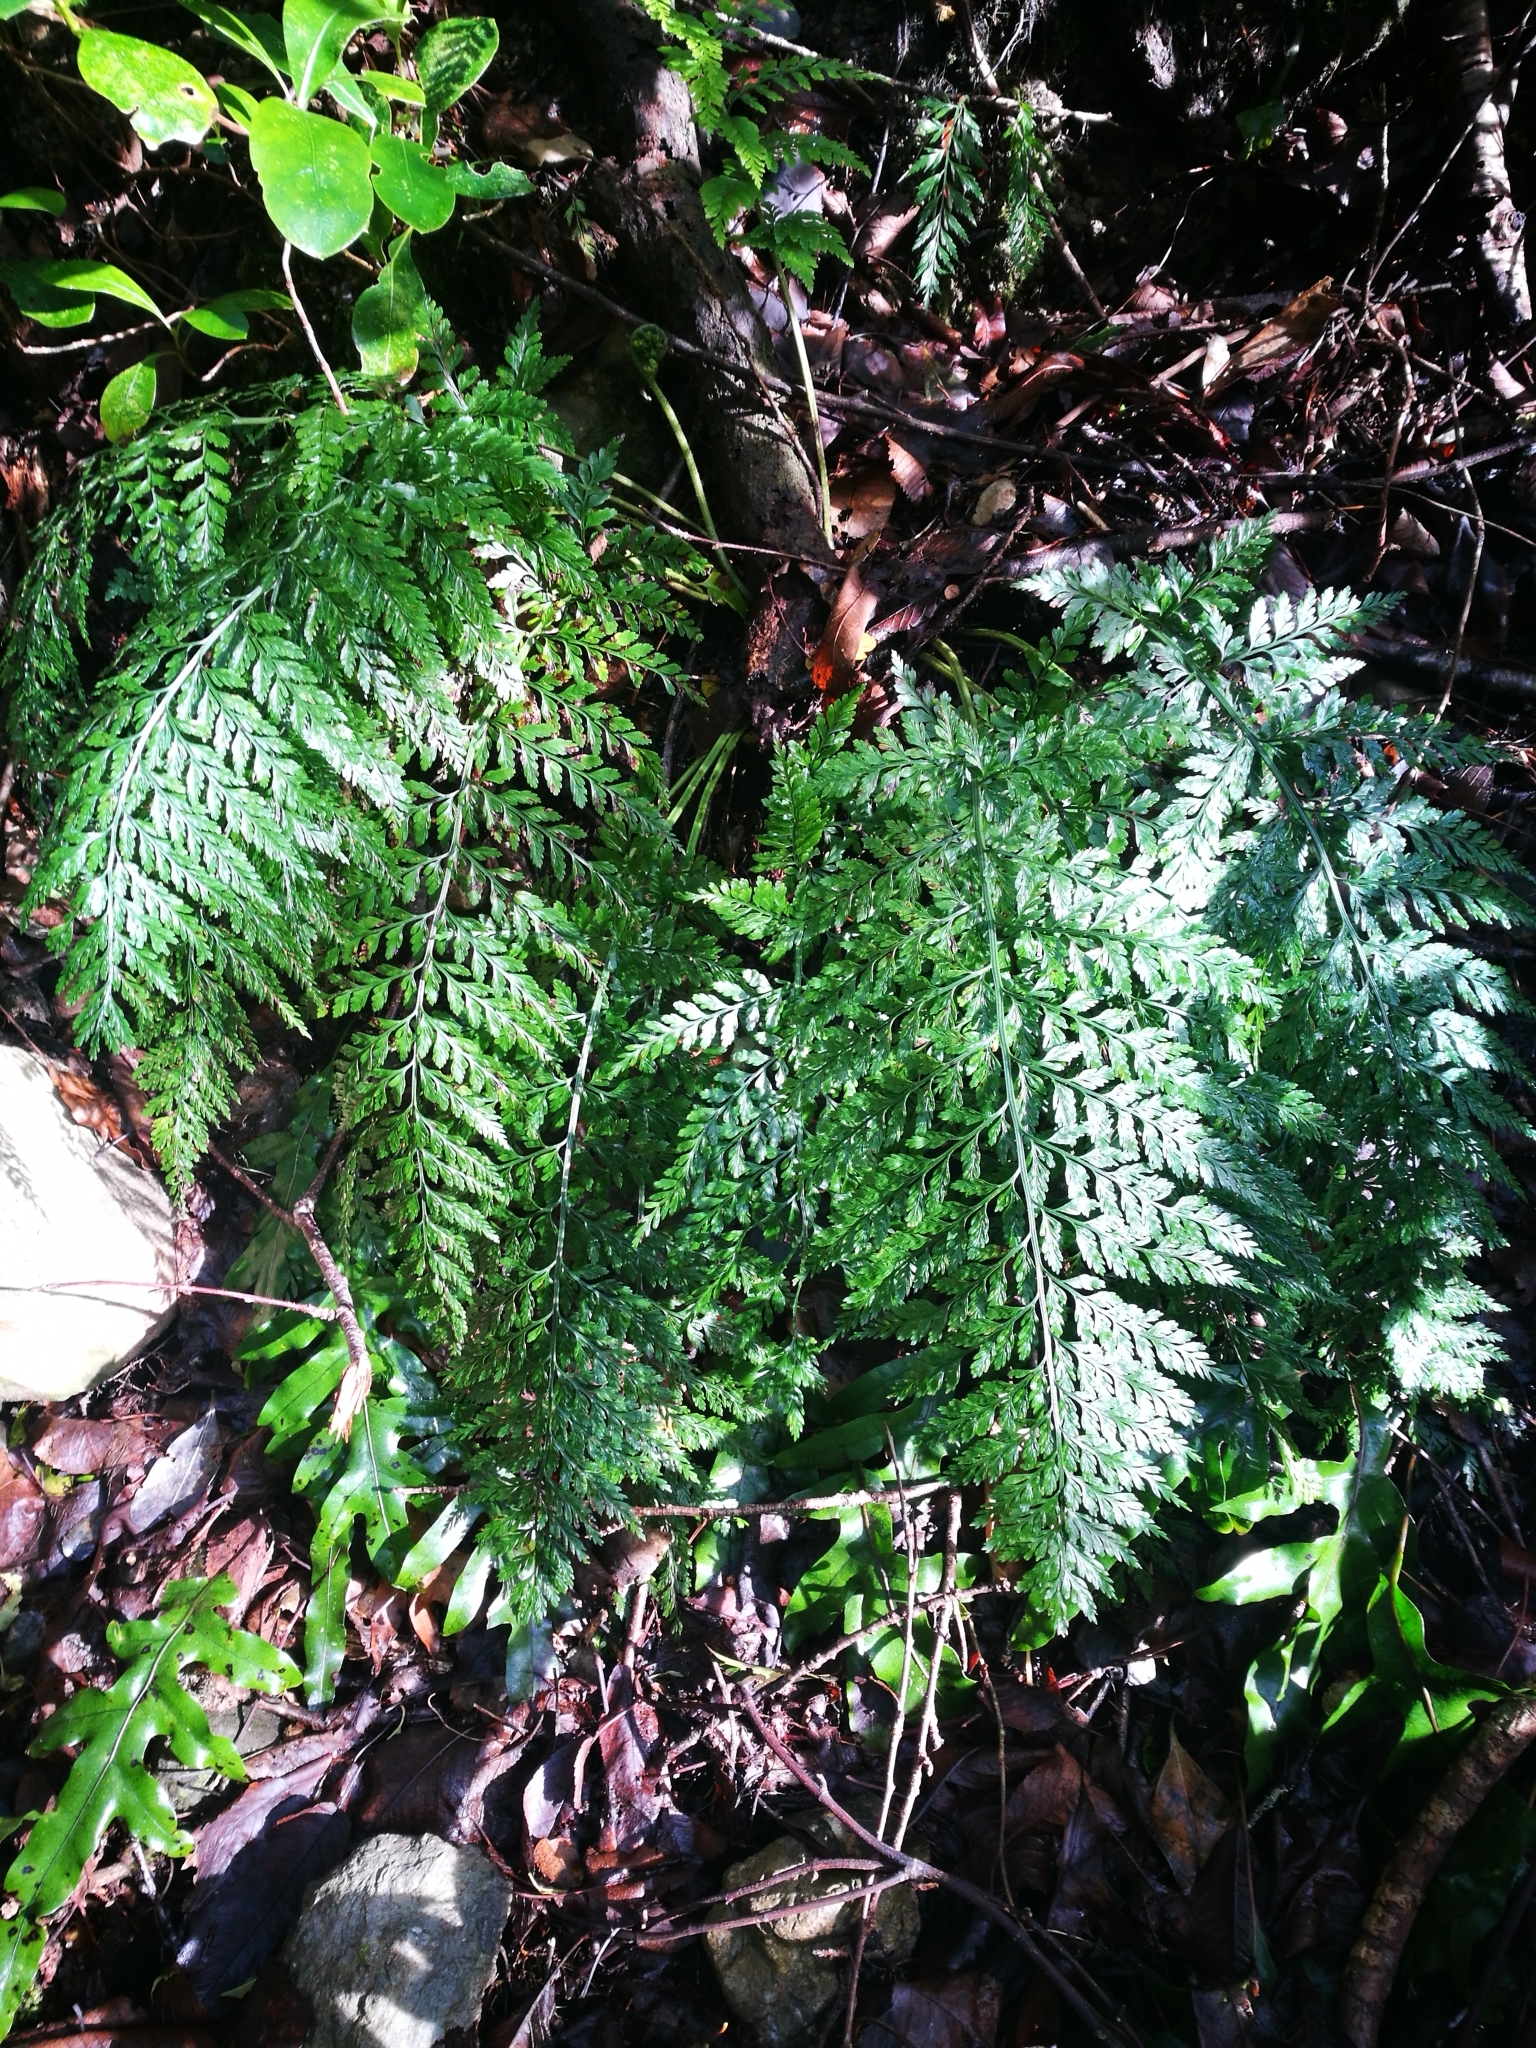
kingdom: Plantae
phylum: Tracheophyta
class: Polypodiopsida
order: Polypodiales
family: Aspleniaceae
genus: Asplenium
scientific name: Asplenium
